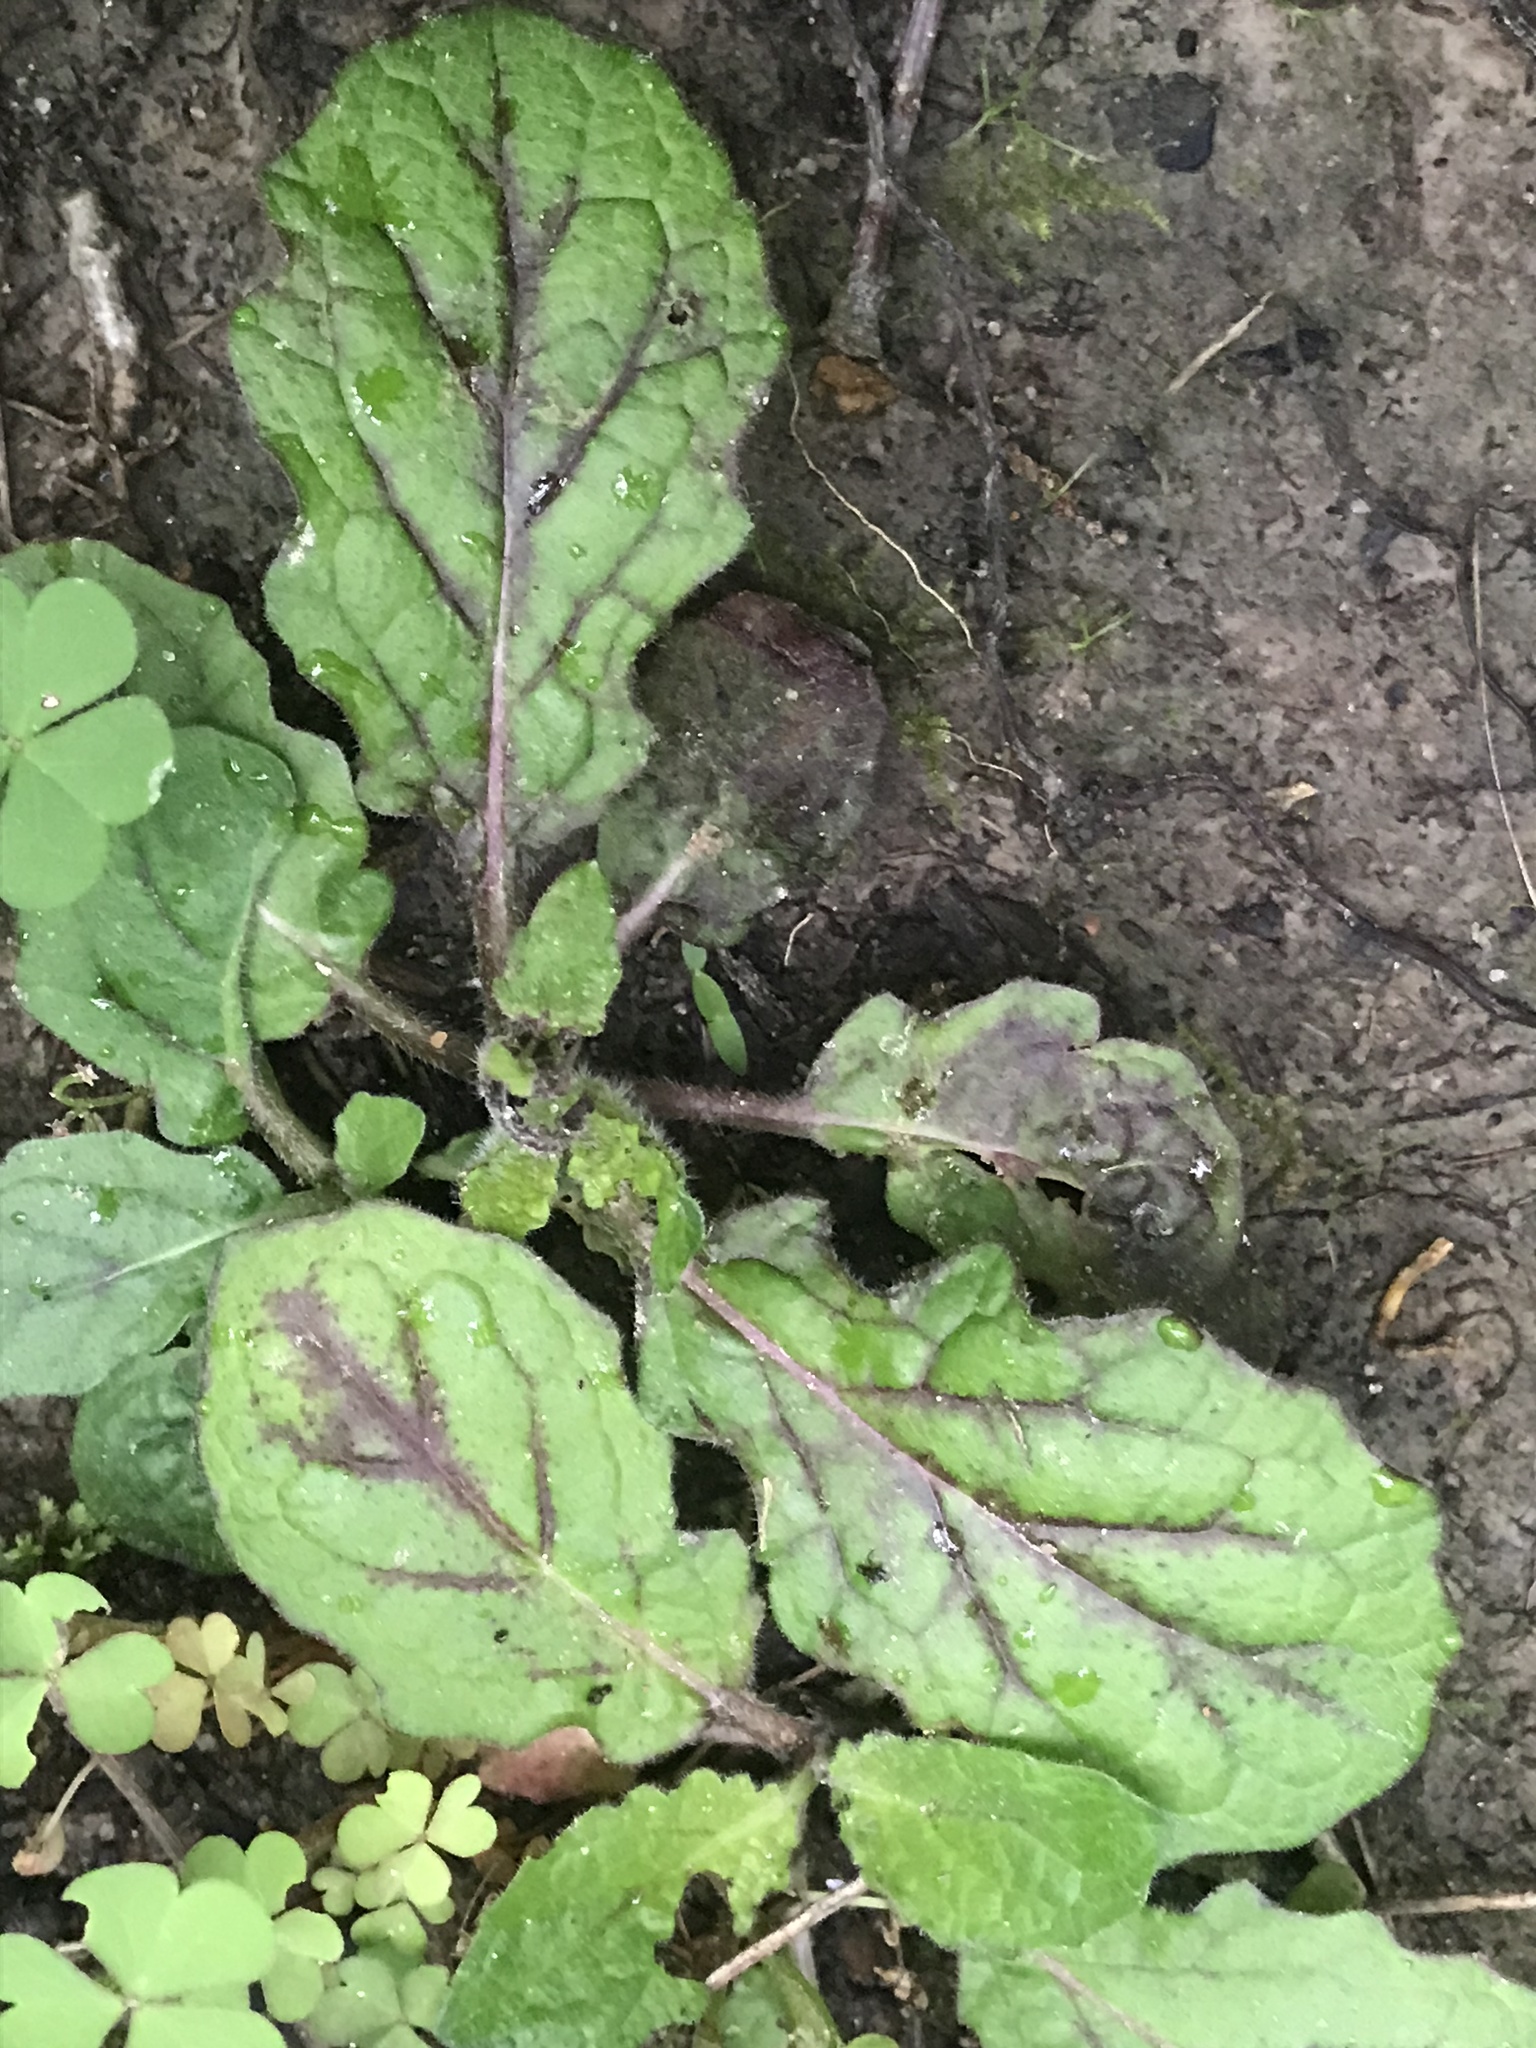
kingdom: Plantae
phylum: Tracheophyta
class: Magnoliopsida
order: Lamiales
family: Lamiaceae
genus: Salvia
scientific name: Salvia lyrata
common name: Cancerweed
